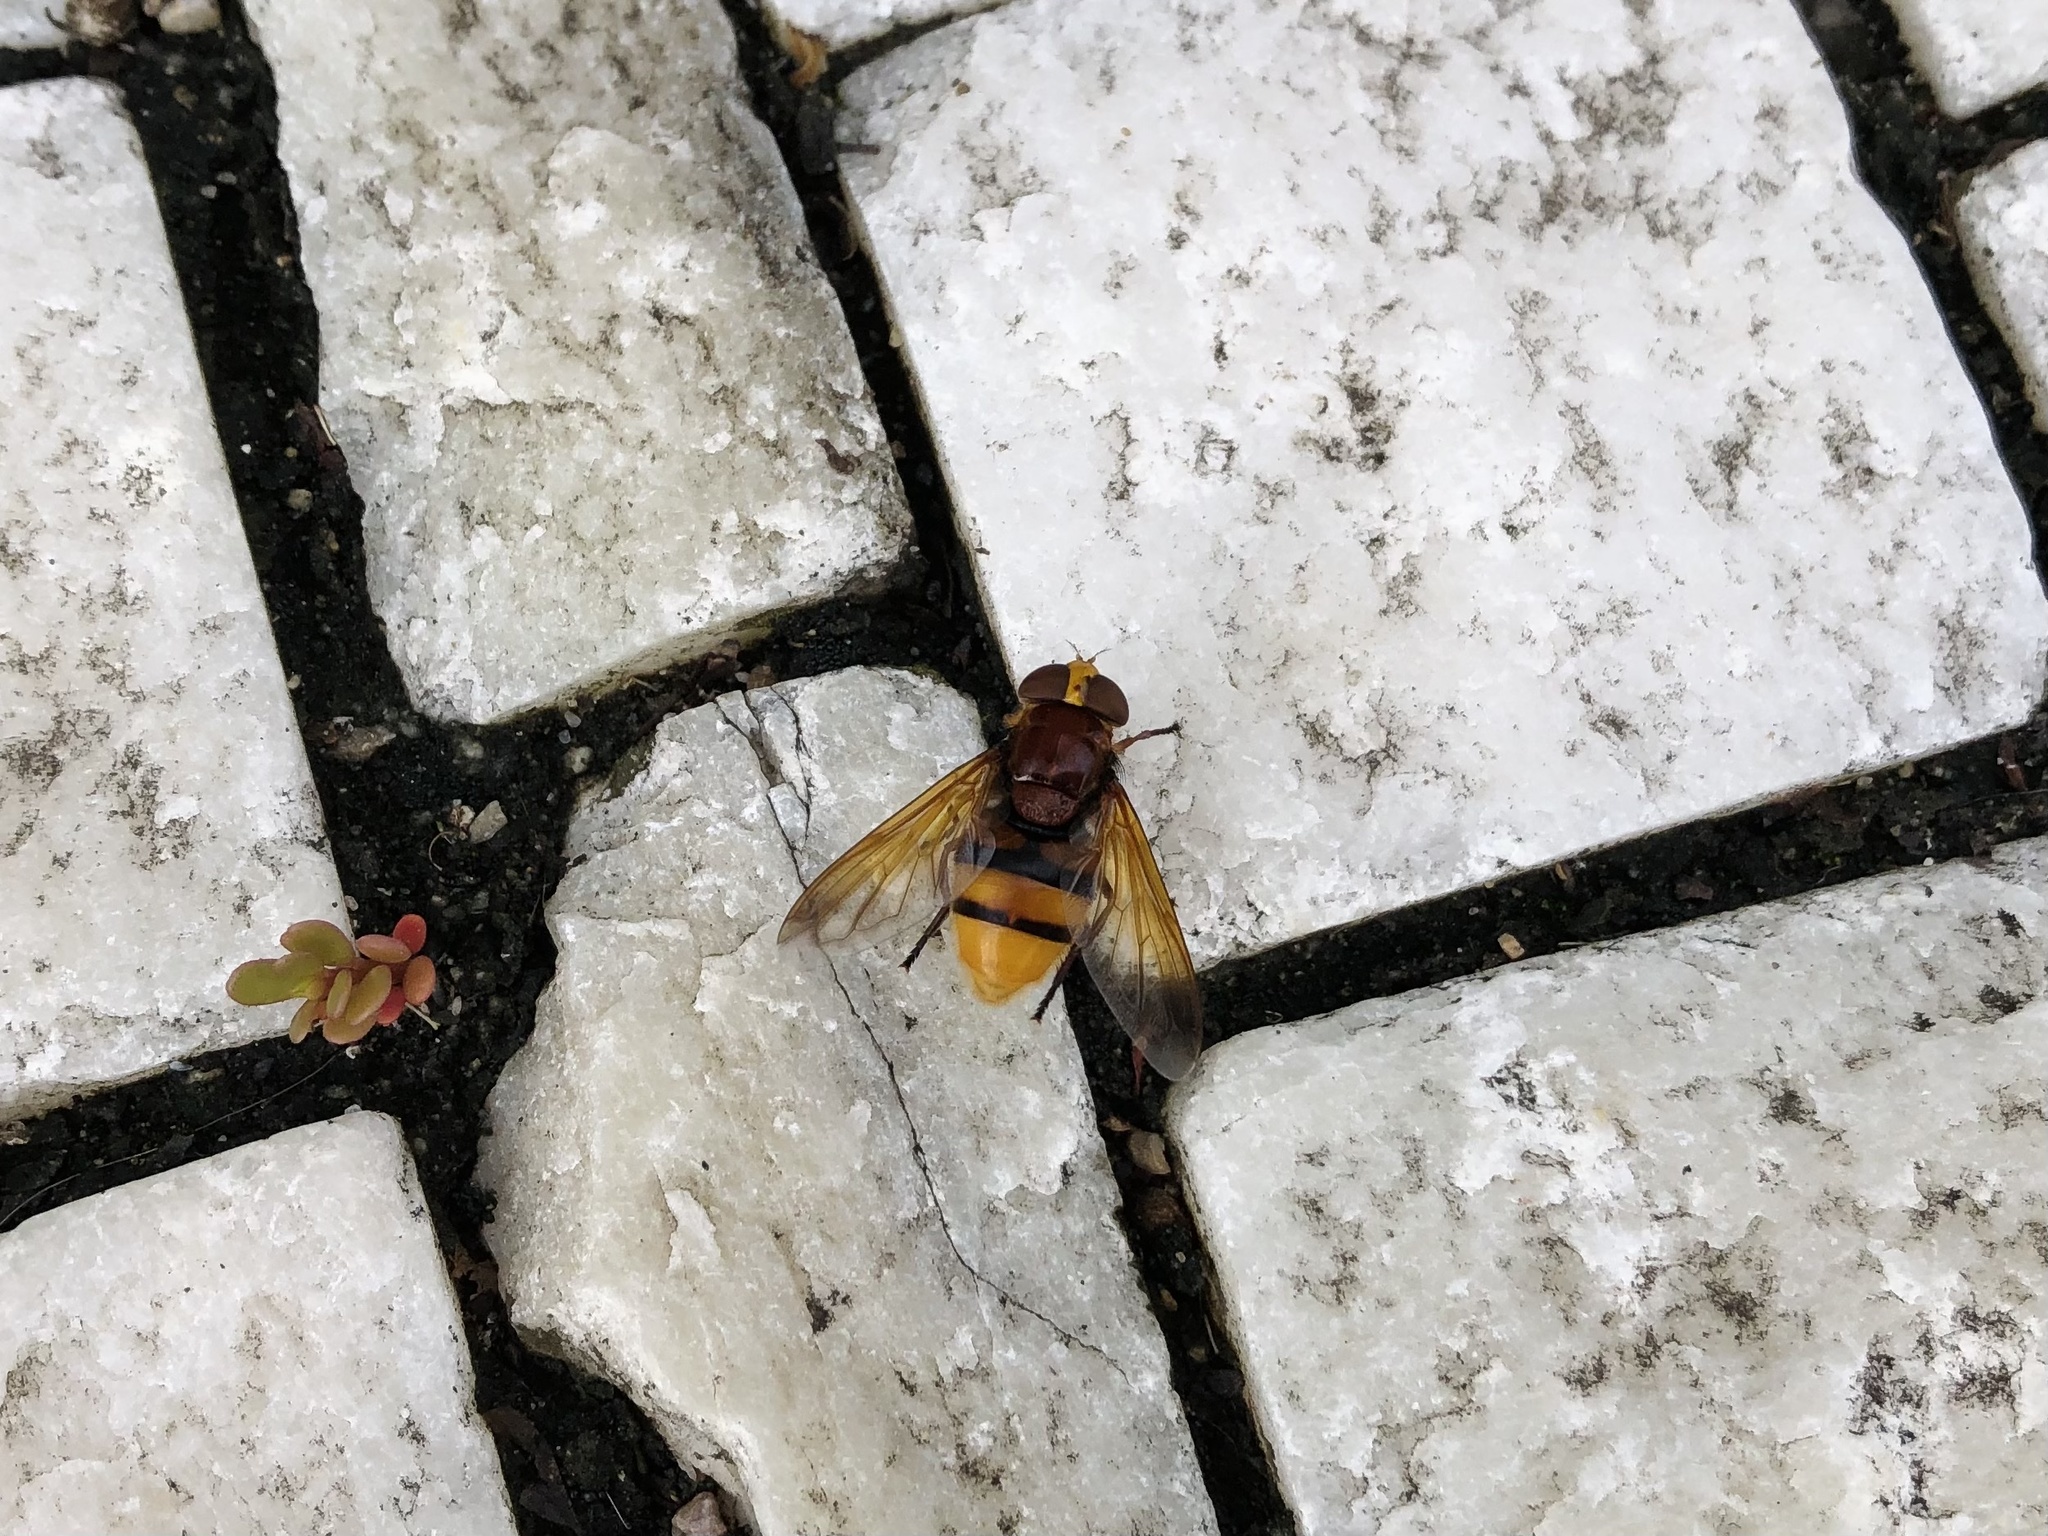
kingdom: Animalia
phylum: Arthropoda
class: Insecta
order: Diptera
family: Syrphidae
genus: Volucella
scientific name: Volucella zonaria
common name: Hornet hoverfly
